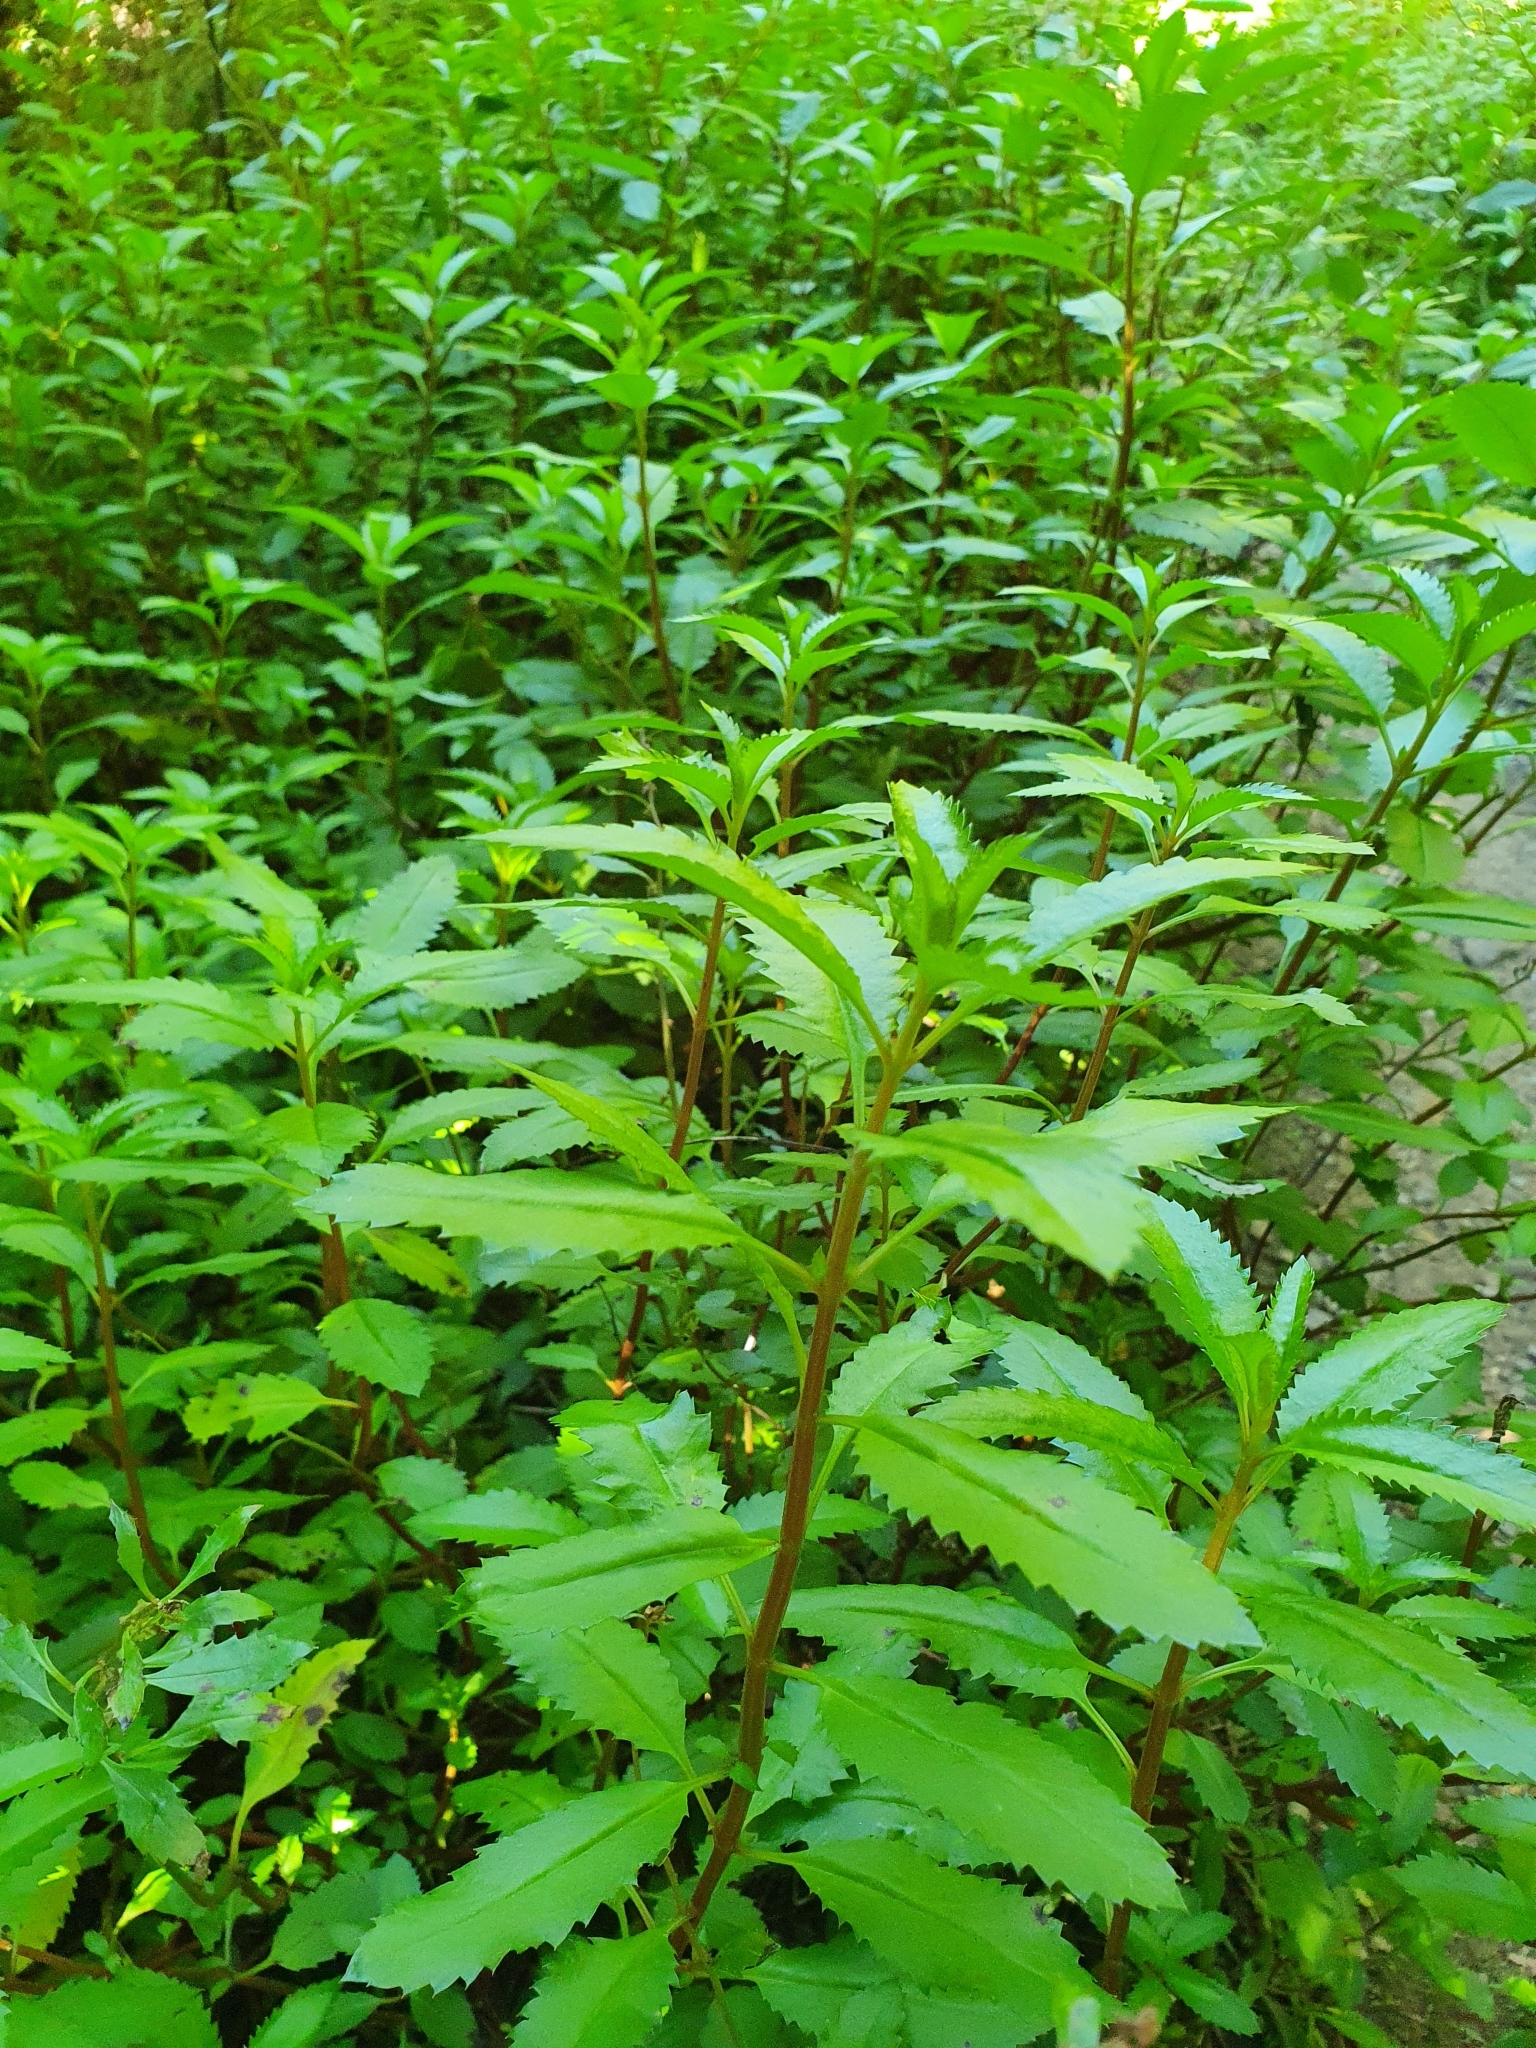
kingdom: Plantae
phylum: Tracheophyta
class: Magnoliopsida
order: Saxifragales
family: Haloragaceae
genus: Haloragis
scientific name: Haloragis erecta
